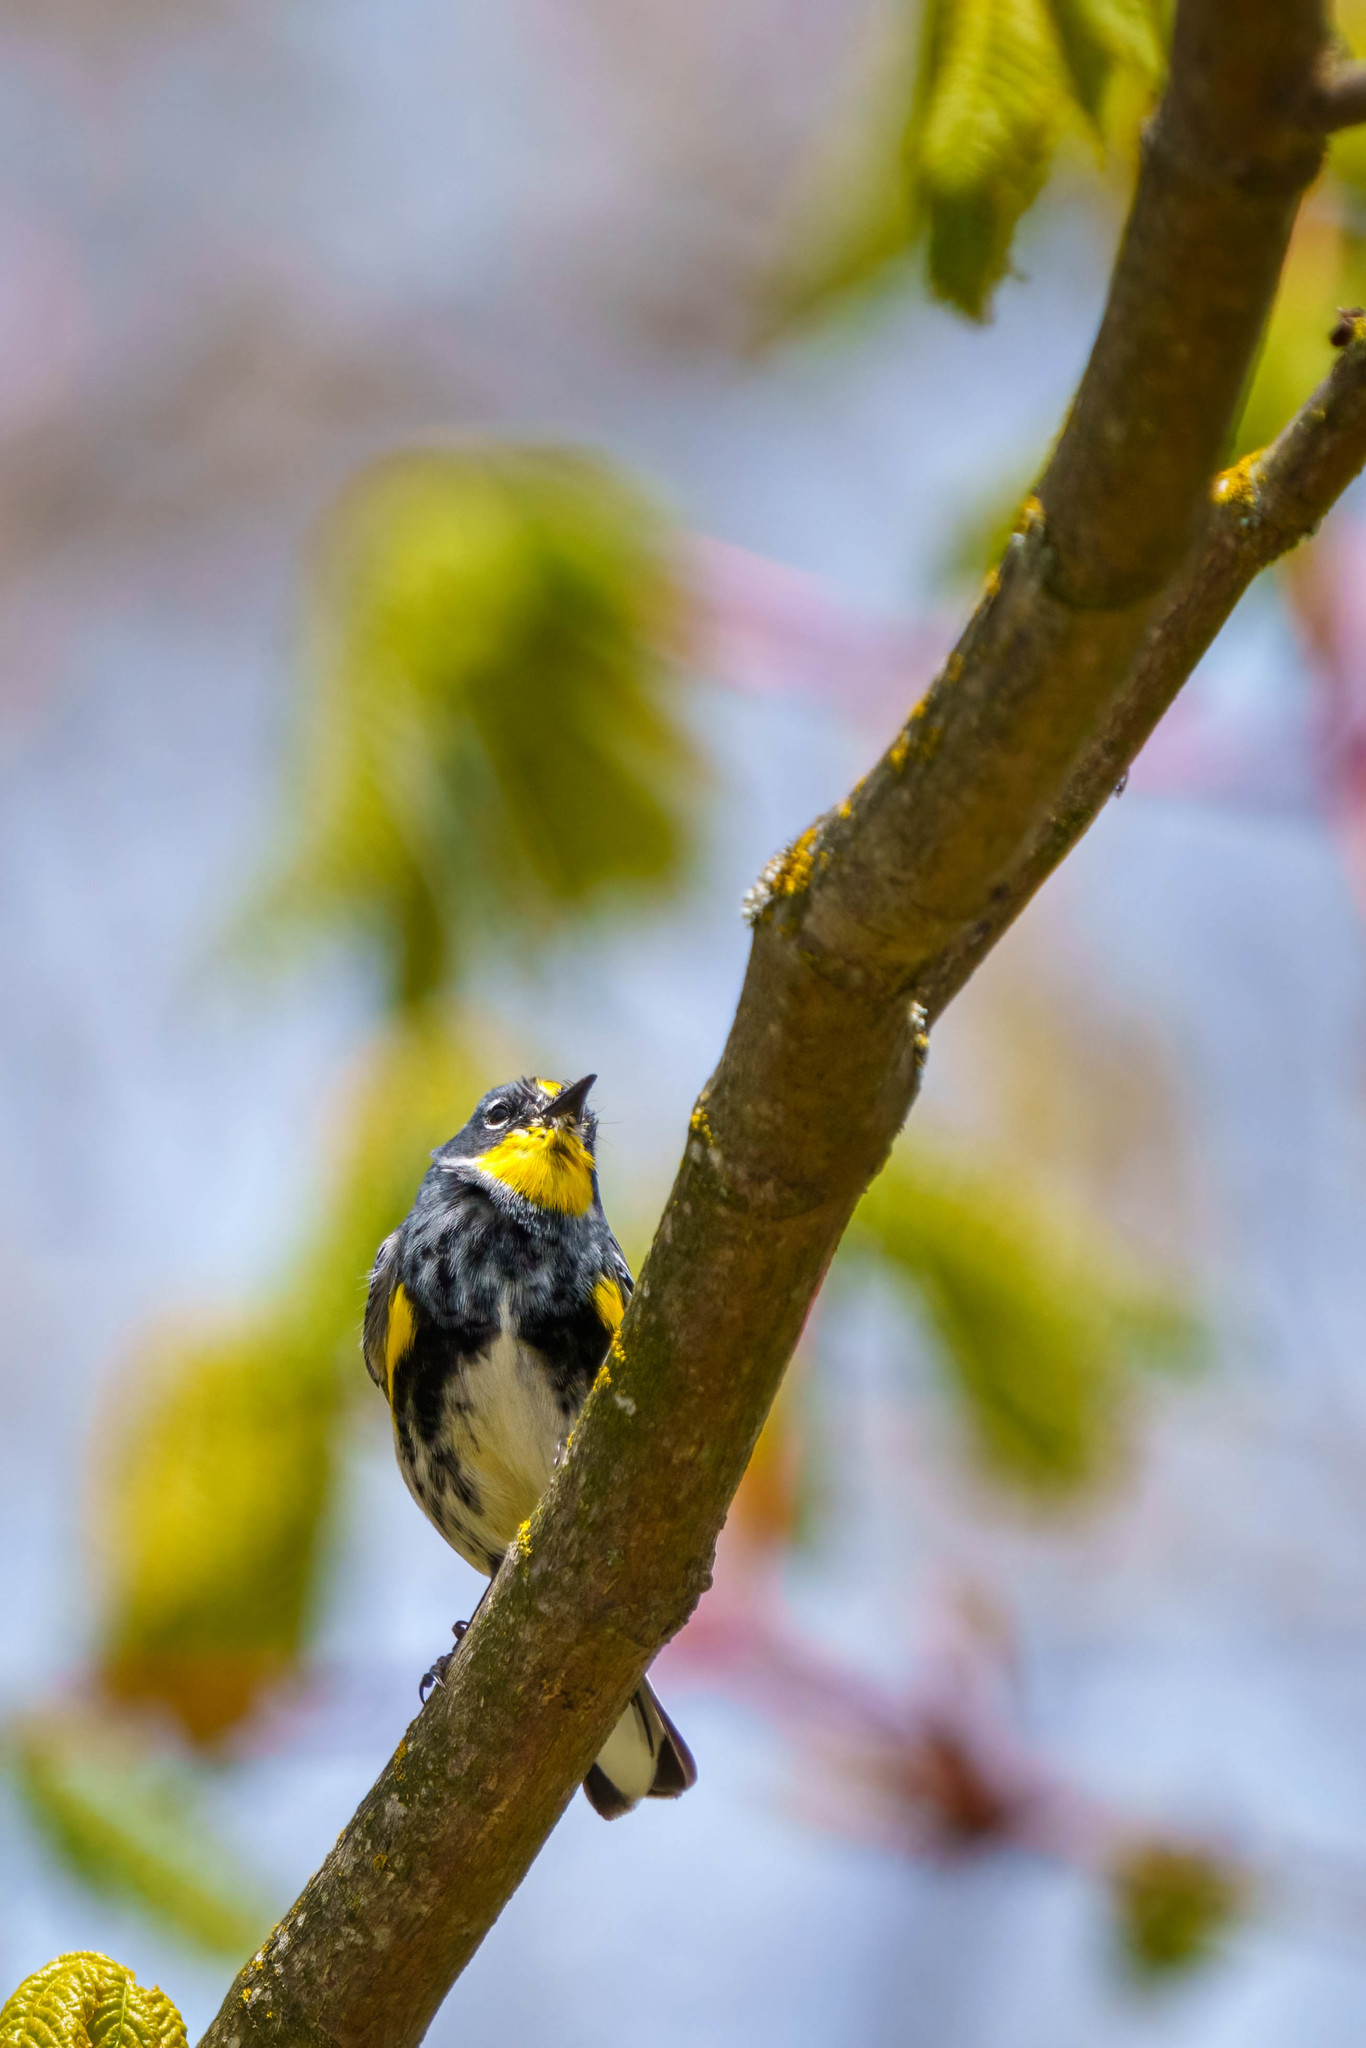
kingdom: Animalia
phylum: Chordata
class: Aves
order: Passeriformes
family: Parulidae
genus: Setophaga
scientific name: Setophaga auduboni
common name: Audubon's warbler
